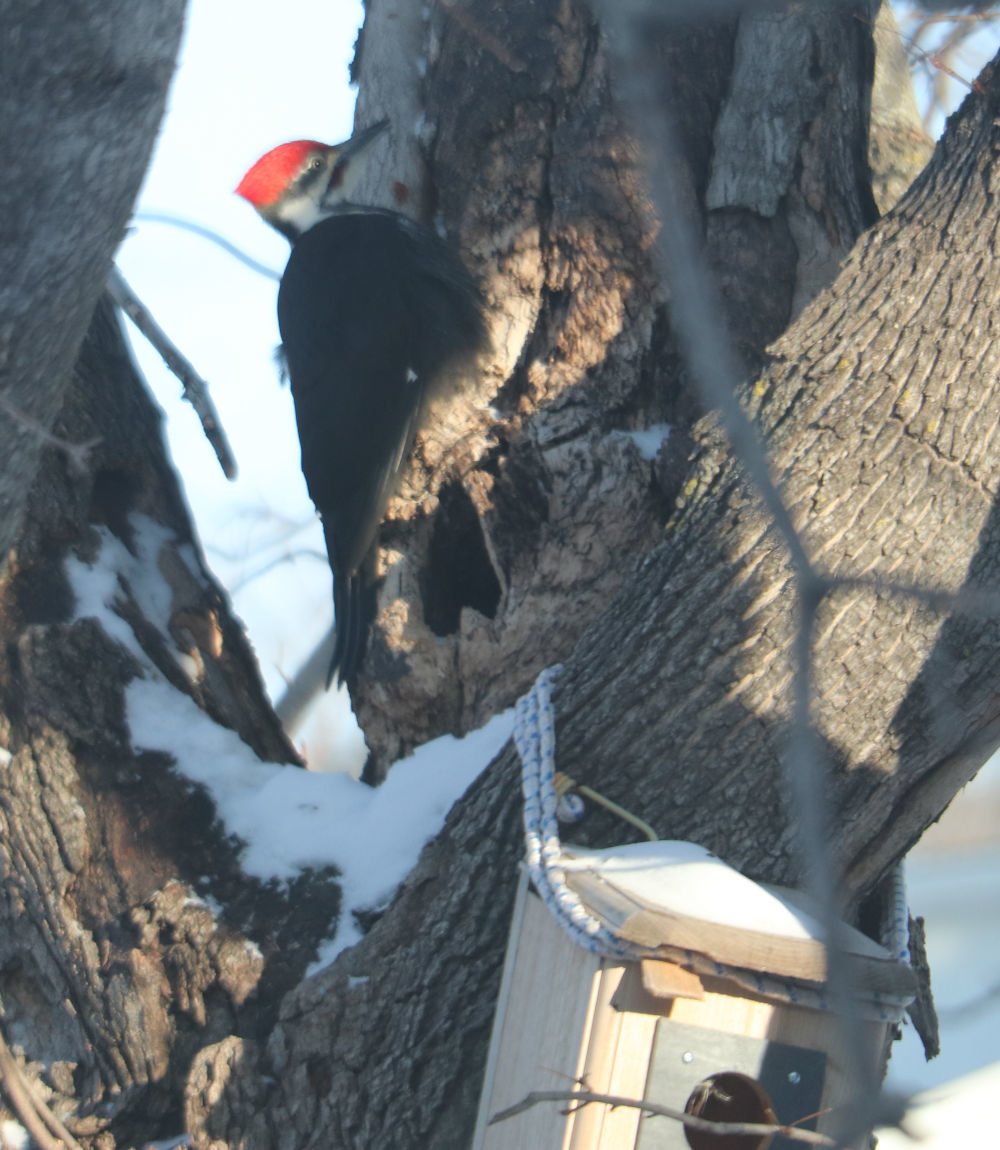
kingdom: Animalia
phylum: Chordata
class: Aves
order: Piciformes
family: Picidae
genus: Dryocopus
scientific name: Dryocopus pileatus
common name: Pileated woodpecker
